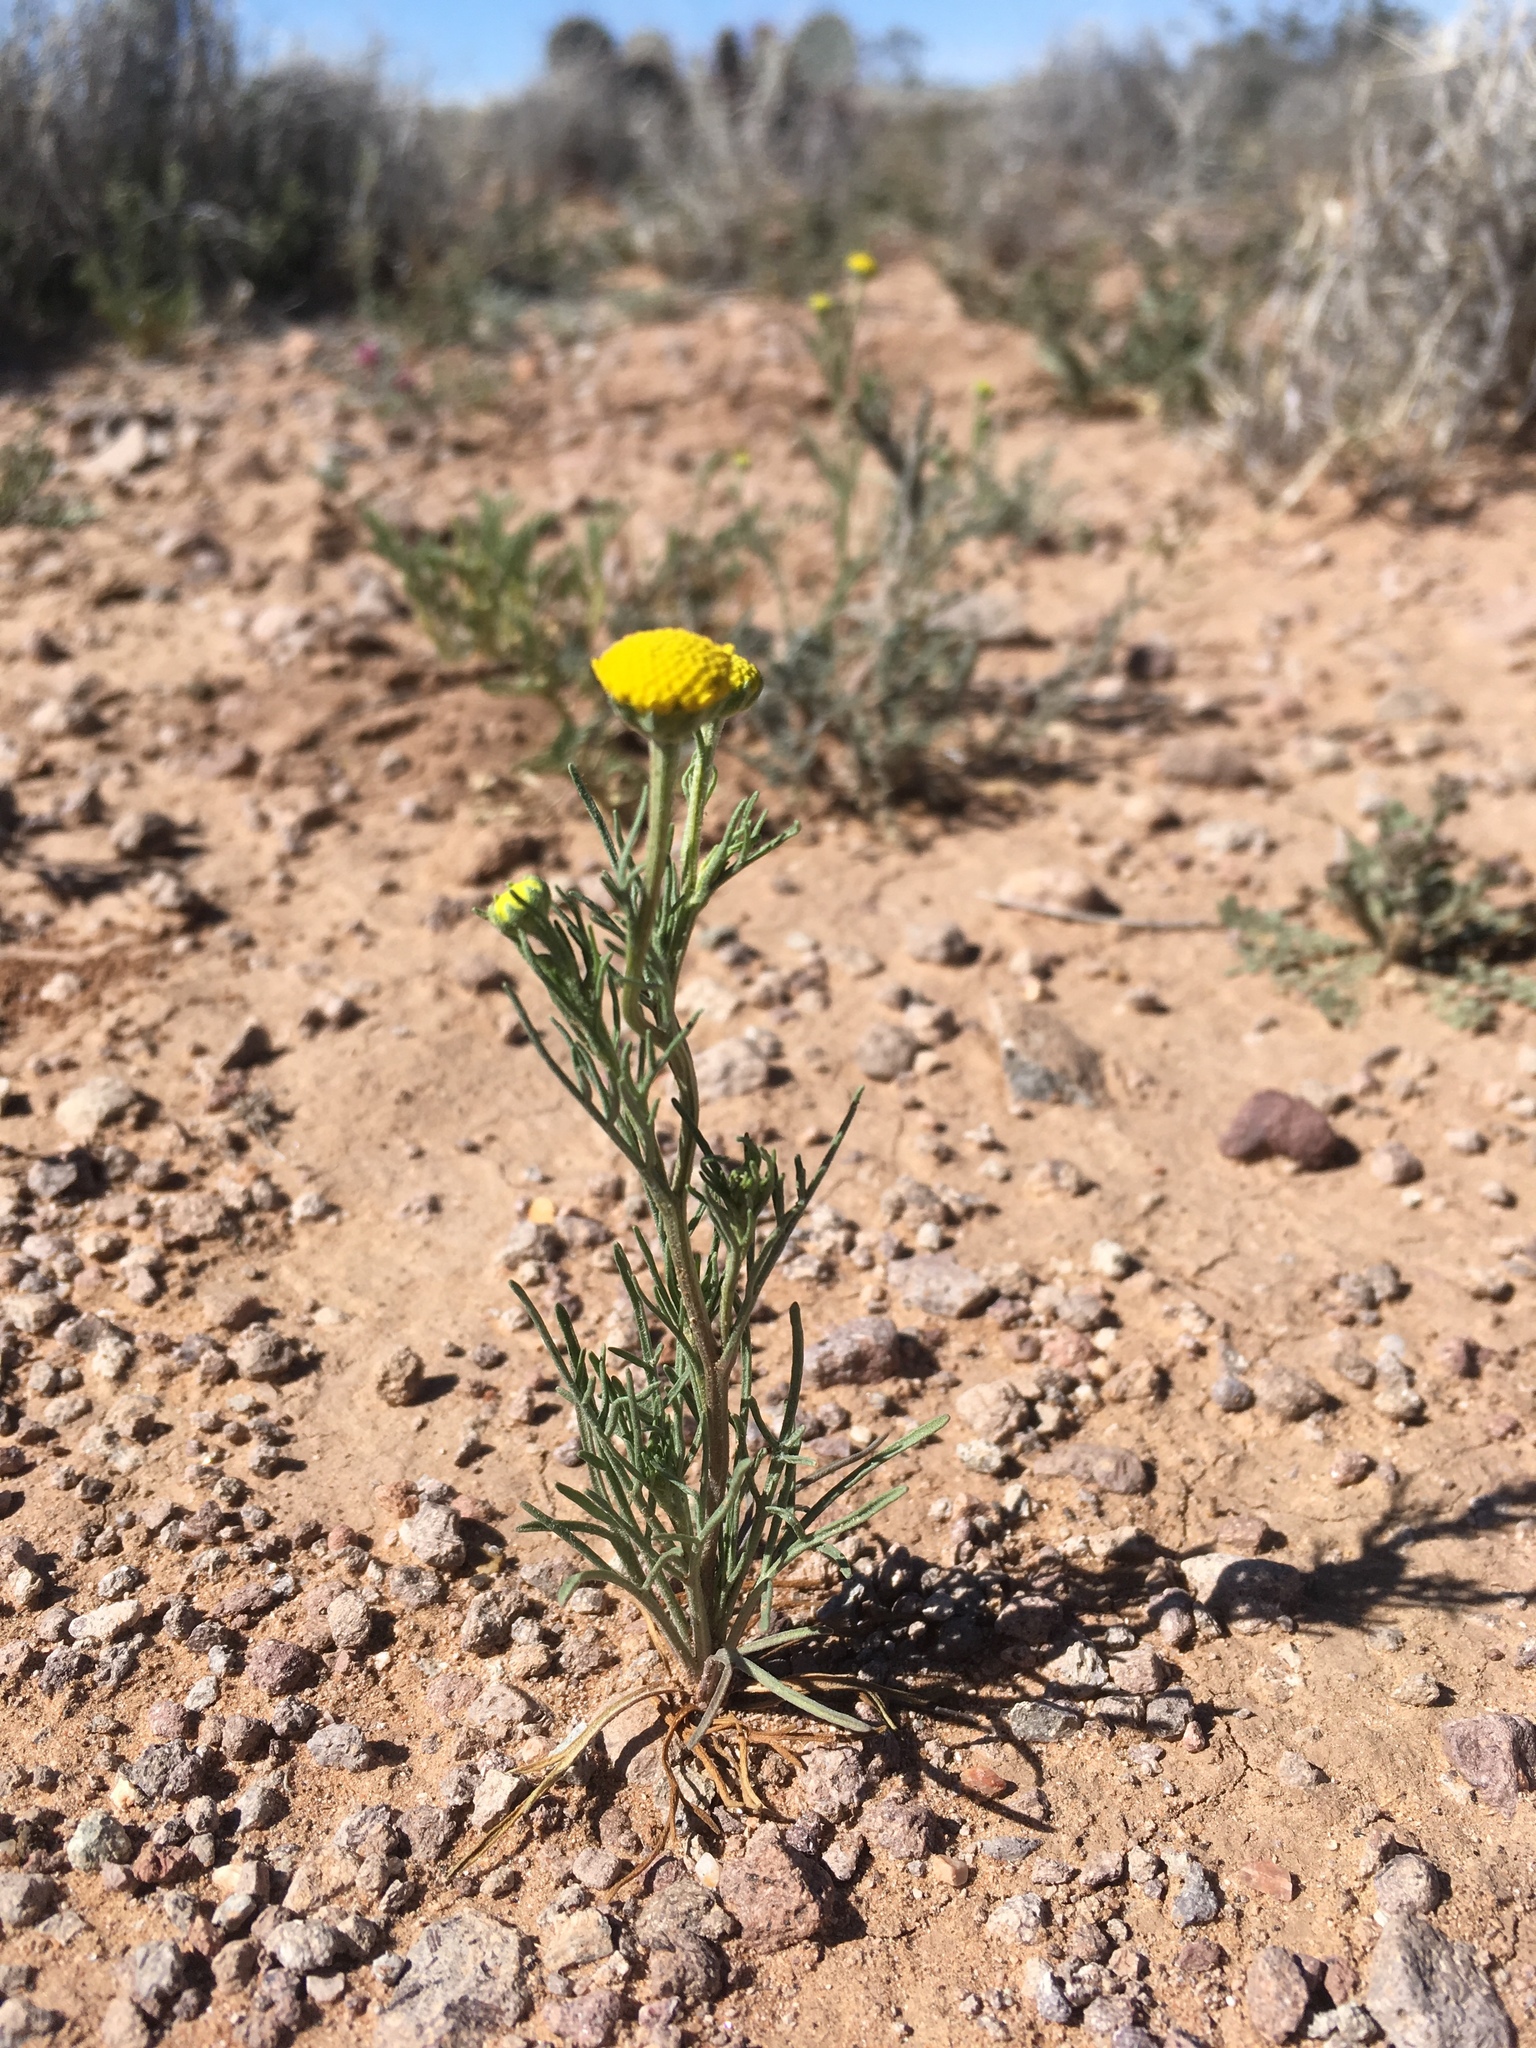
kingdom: Plantae
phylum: Tracheophyta
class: Magnoliopsida
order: Asterales
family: Asteraceae
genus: Hymenoxys
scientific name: Hymenoxys odorata
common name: Bitter rubberweed
